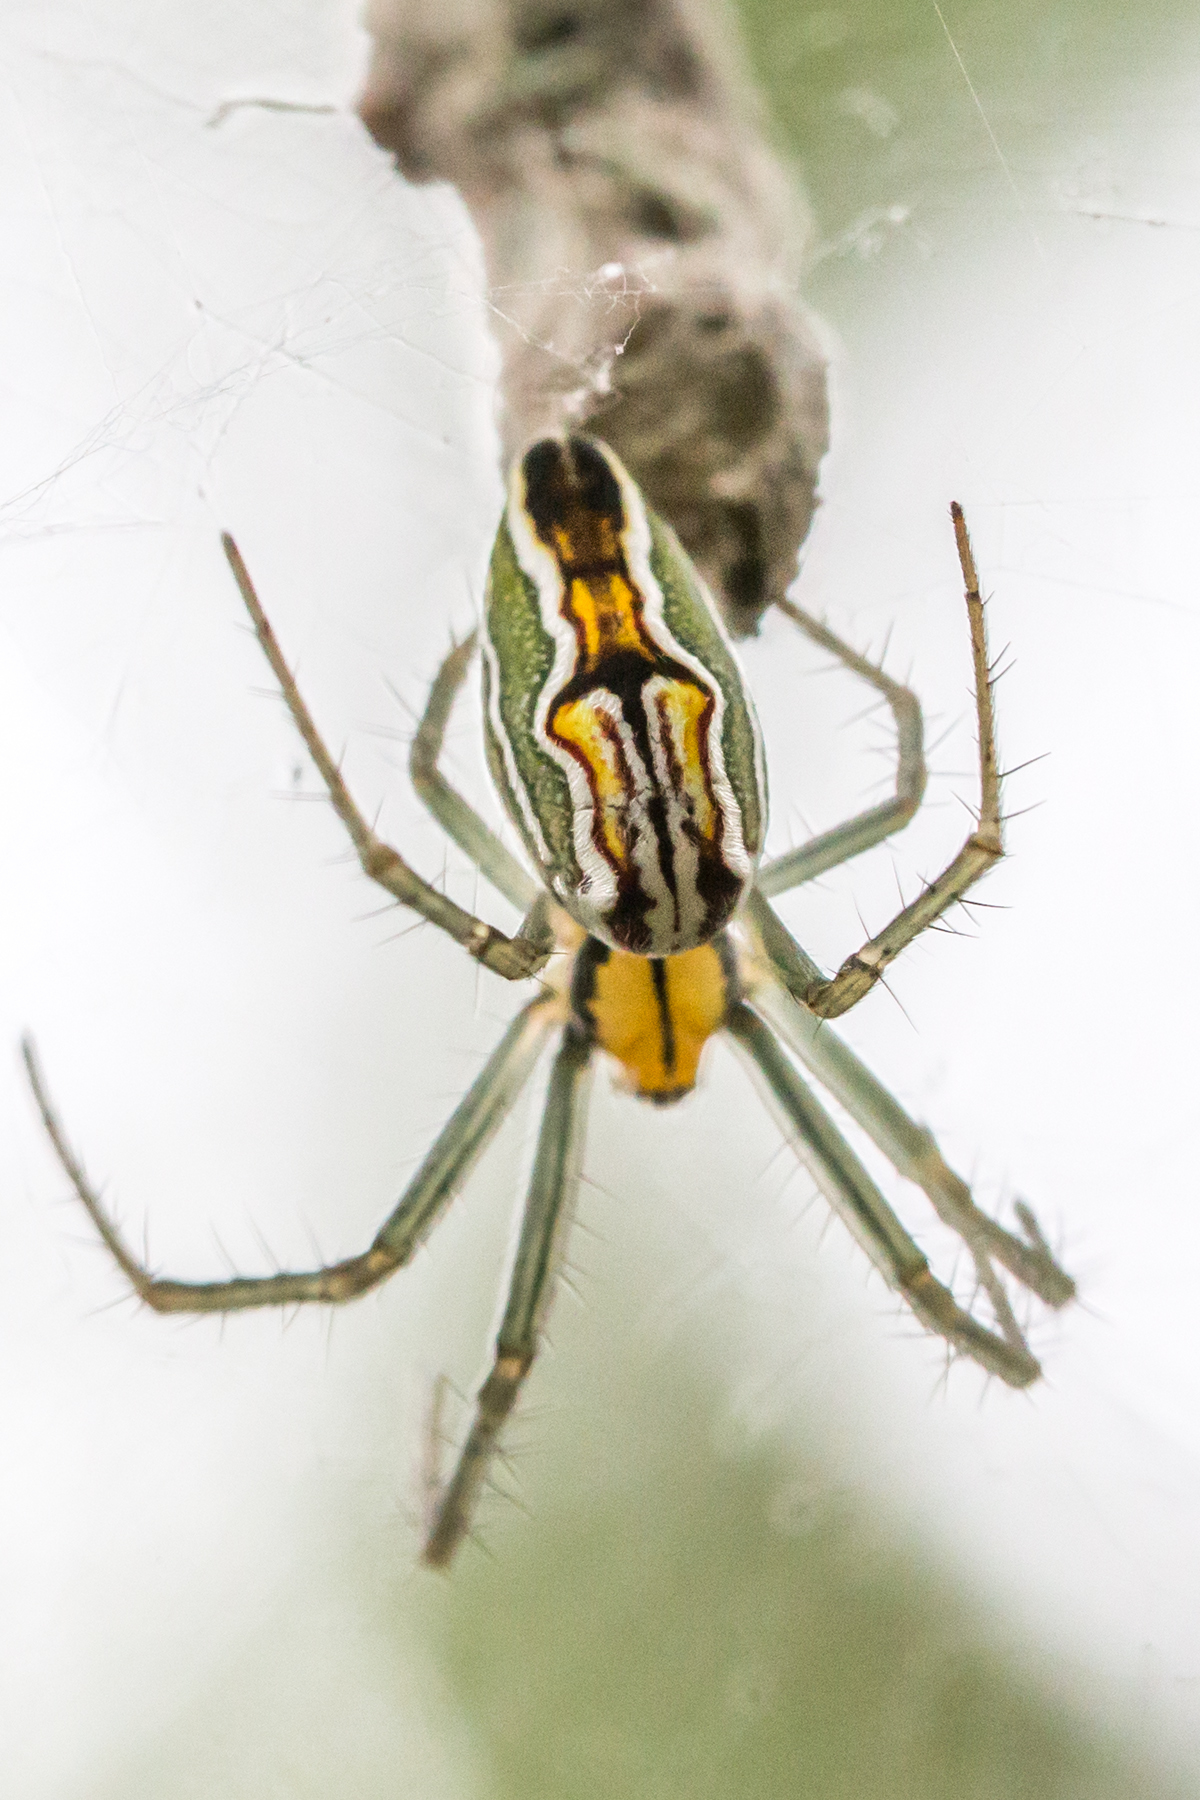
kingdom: Animalia
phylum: Arthropoda
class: Arachnida
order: Araneae
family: Araneidae
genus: Mecynogea
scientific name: Mecynogea lemniscata
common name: Orb weavers
